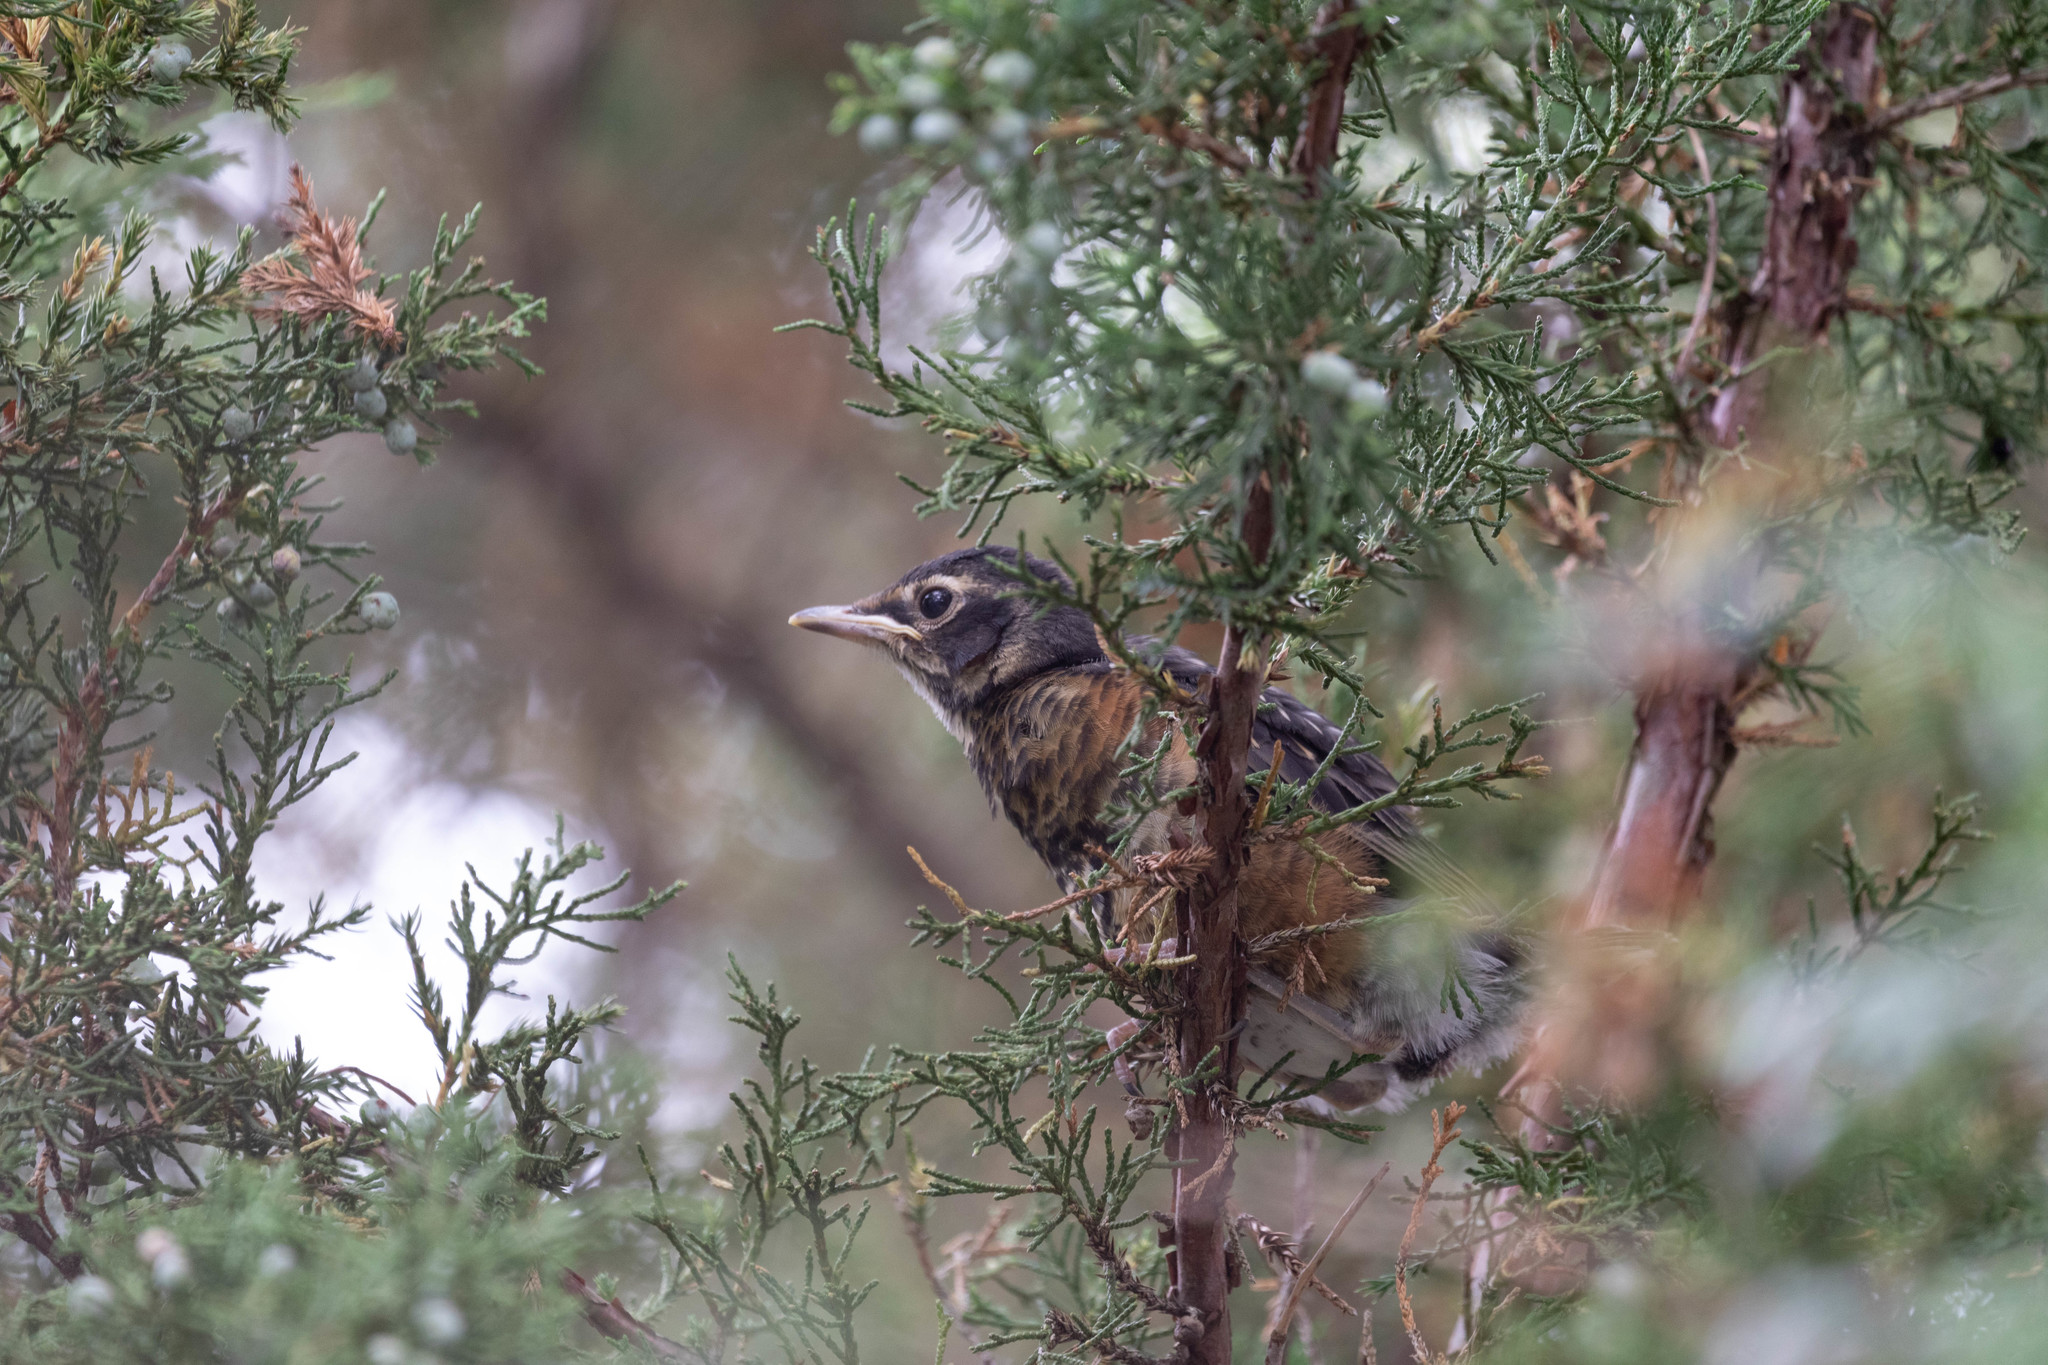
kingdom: Animalia
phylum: Chordata
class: Aves
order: Passeriformes
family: Turdidae
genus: Turdus
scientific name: Turdus migratorius
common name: American robin
